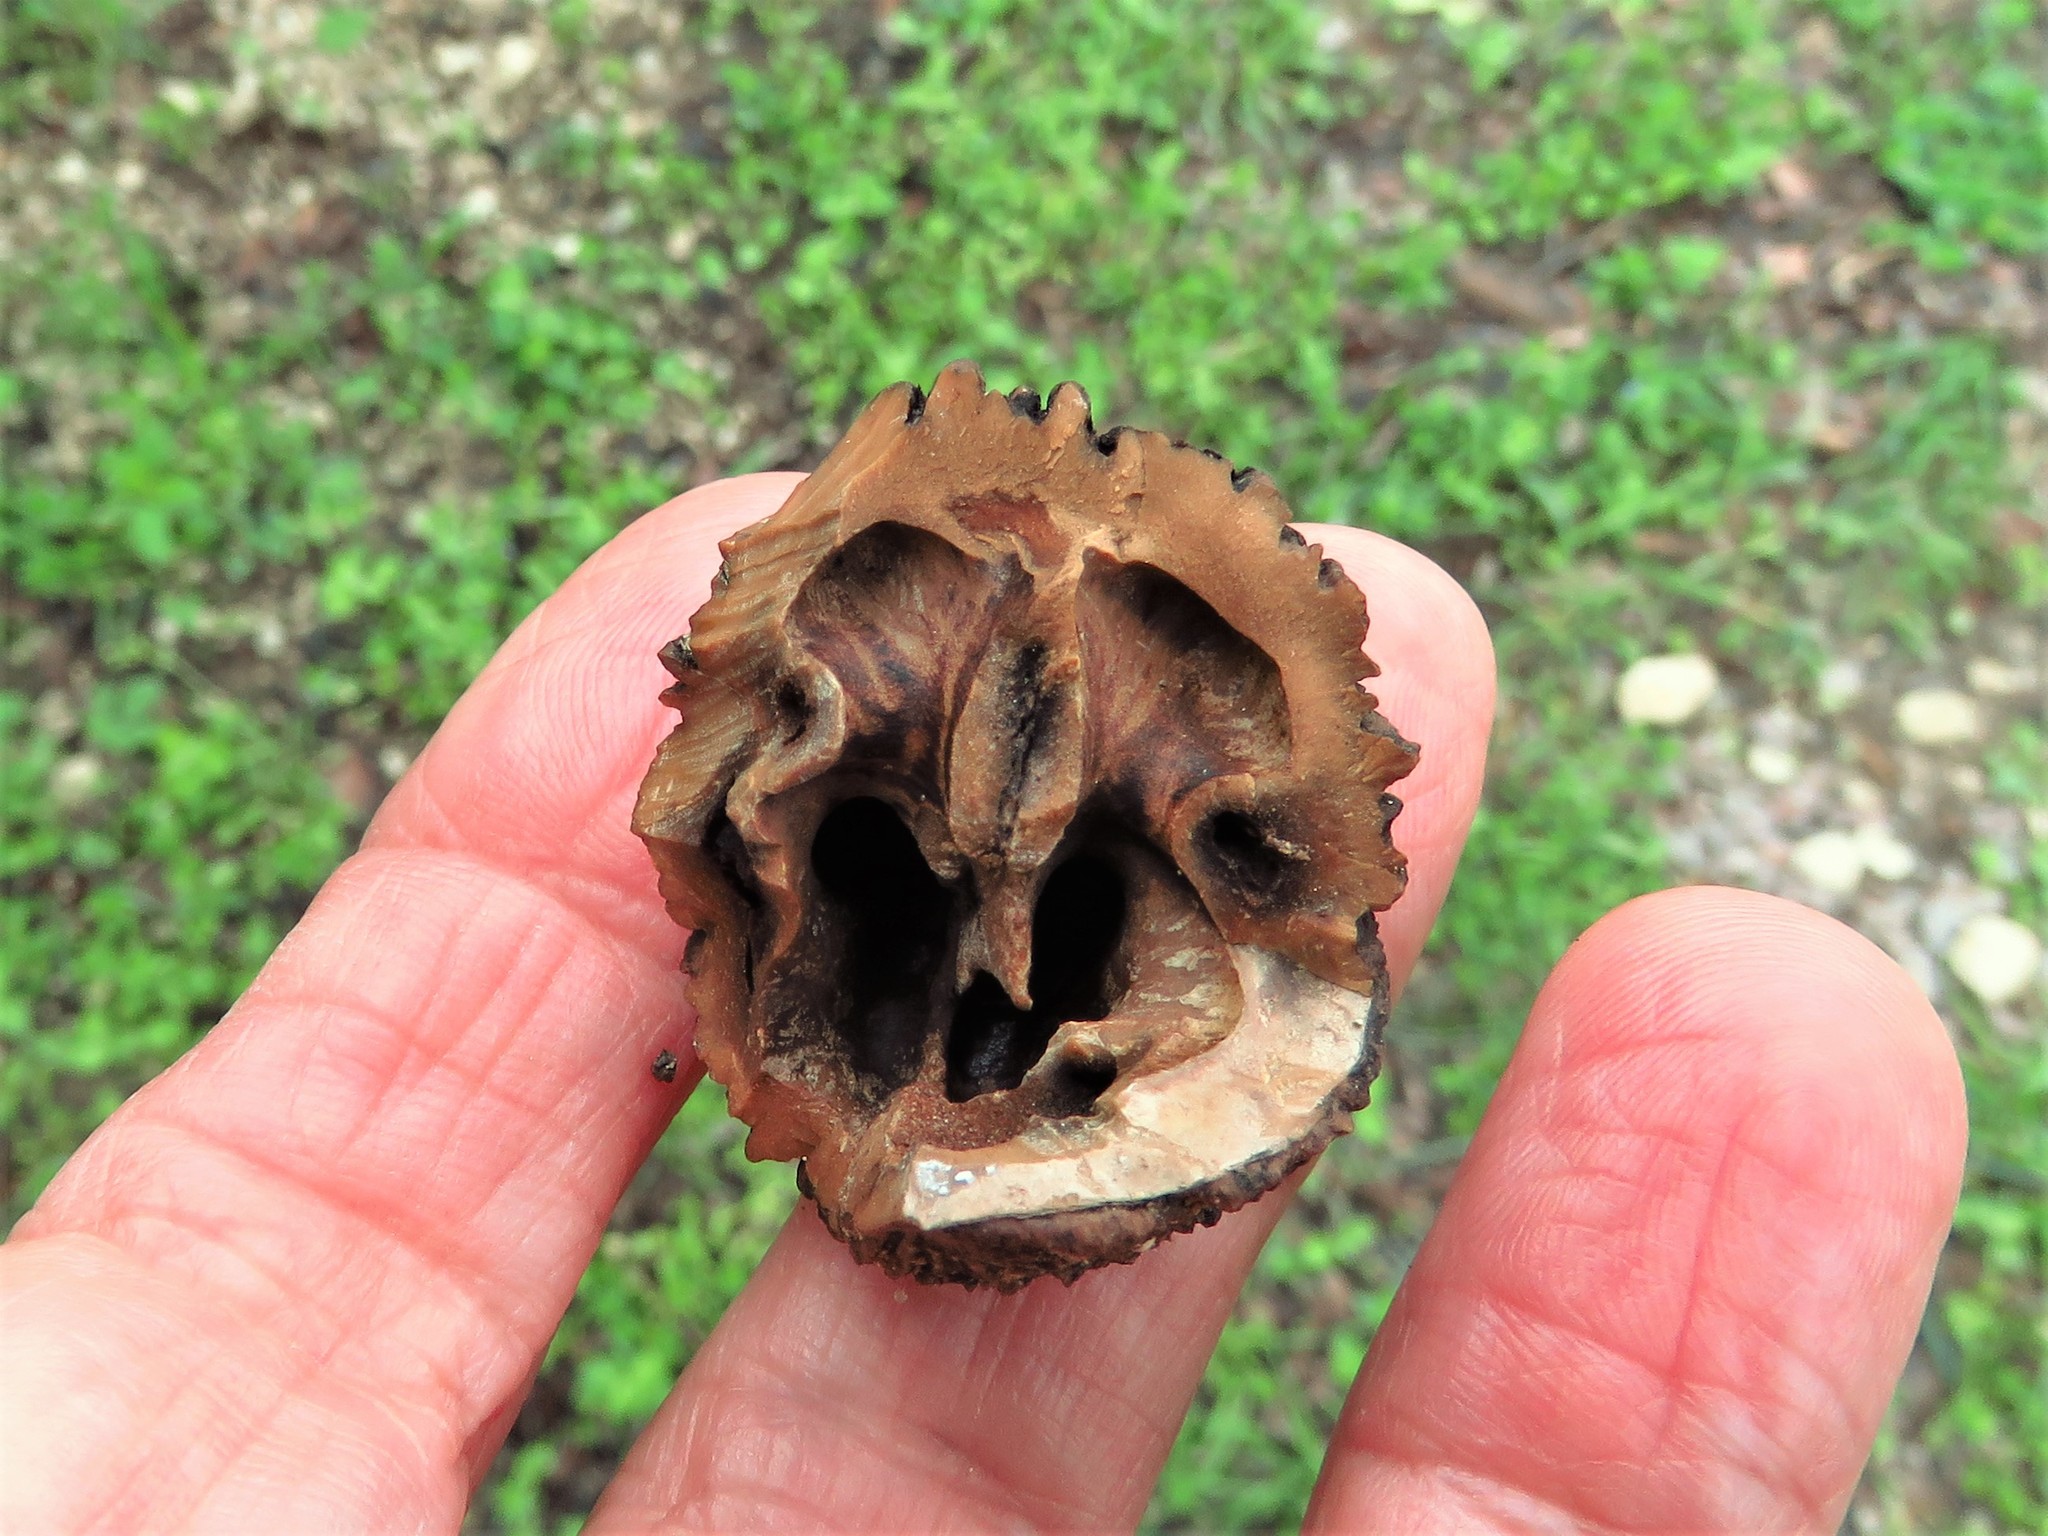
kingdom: Plantae
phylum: Tracheophyta
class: Magnoliopsida
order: Fagales
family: Juglandaceae
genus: Juglans
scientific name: Juglans nigra
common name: Black walnut
